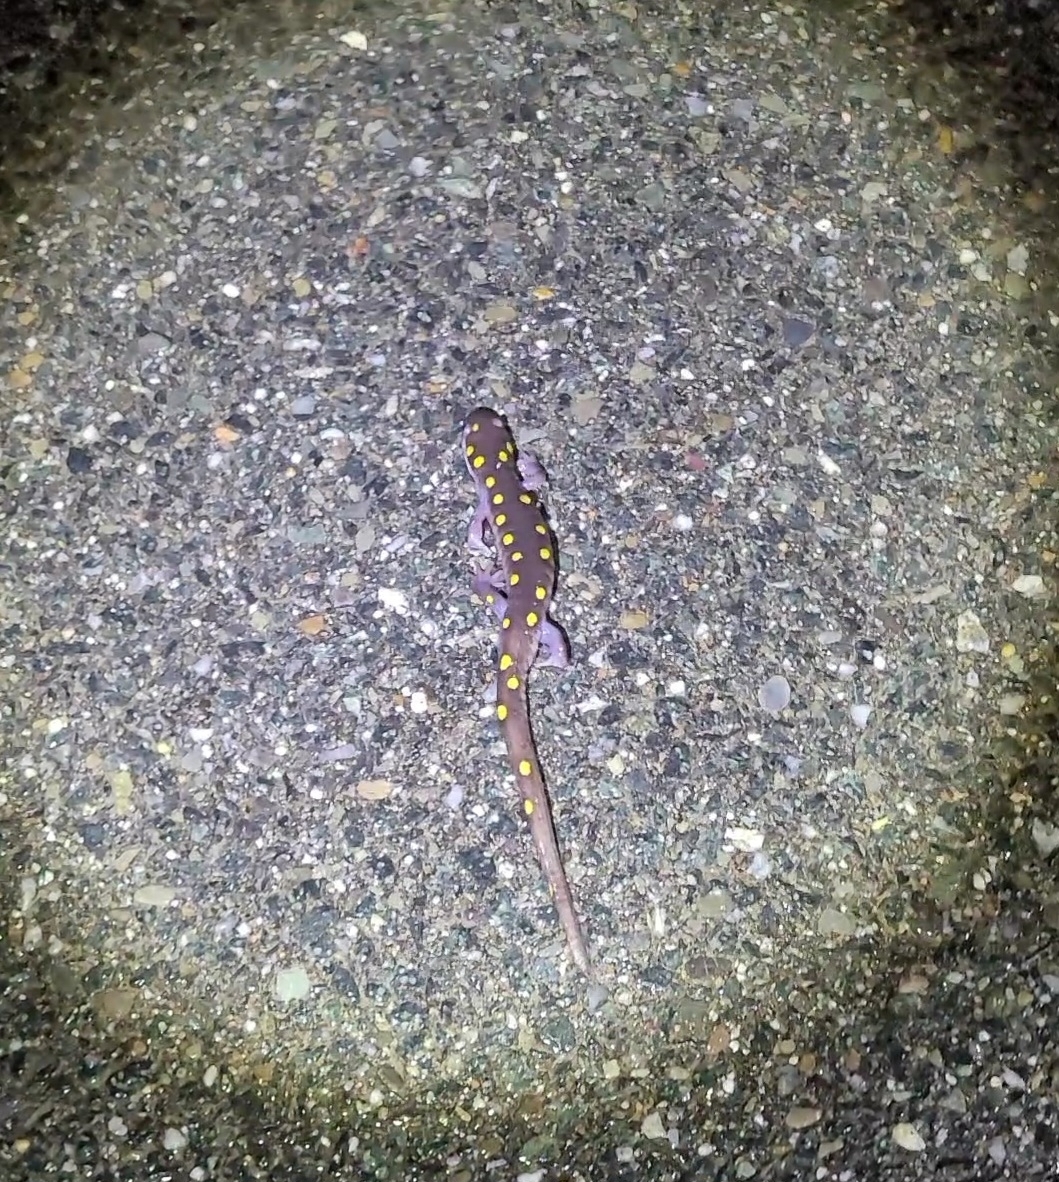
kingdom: Animalia
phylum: Chordata
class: Amphibia
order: Caudata
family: Ambystomatidae
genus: Ambystoma
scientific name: Ambystoma maculatum
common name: Spotted salamander
